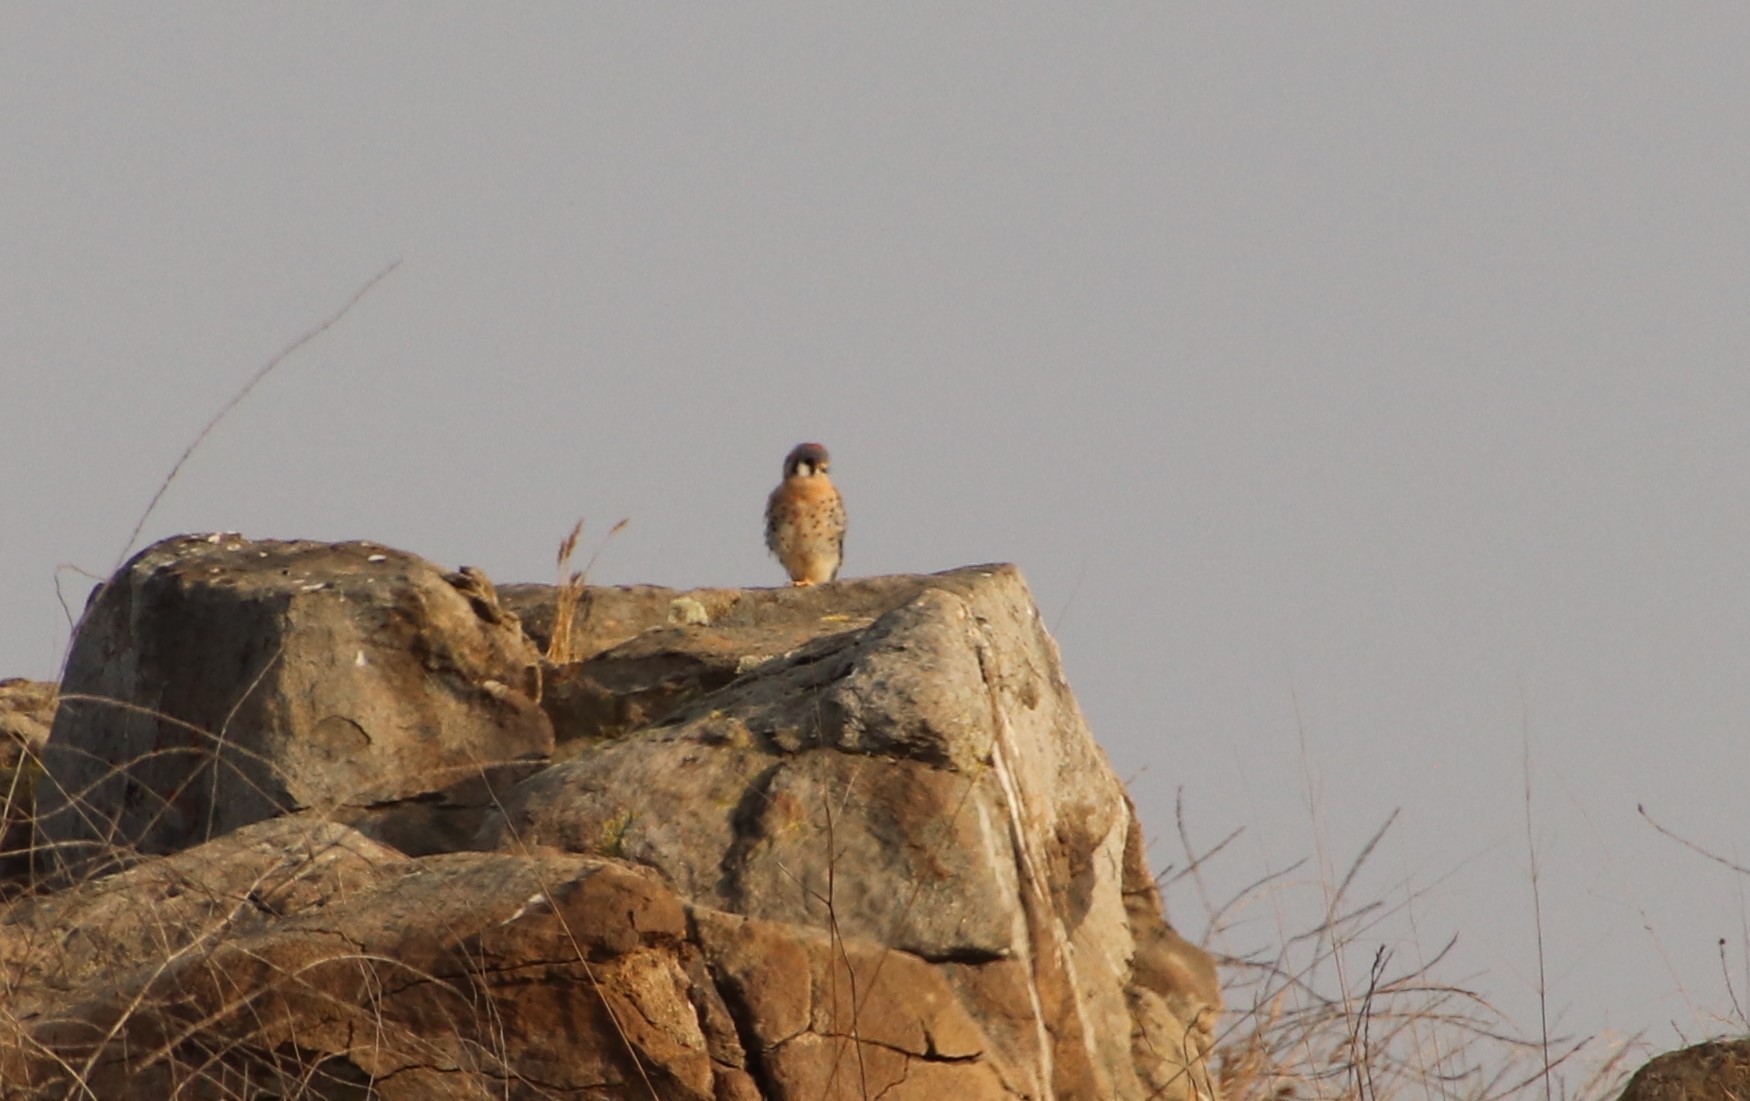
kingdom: Animalia
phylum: Chordata
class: Aves
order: Falconiformes
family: Falconidae
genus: Falco
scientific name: Falco sparverius
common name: American kestrel
